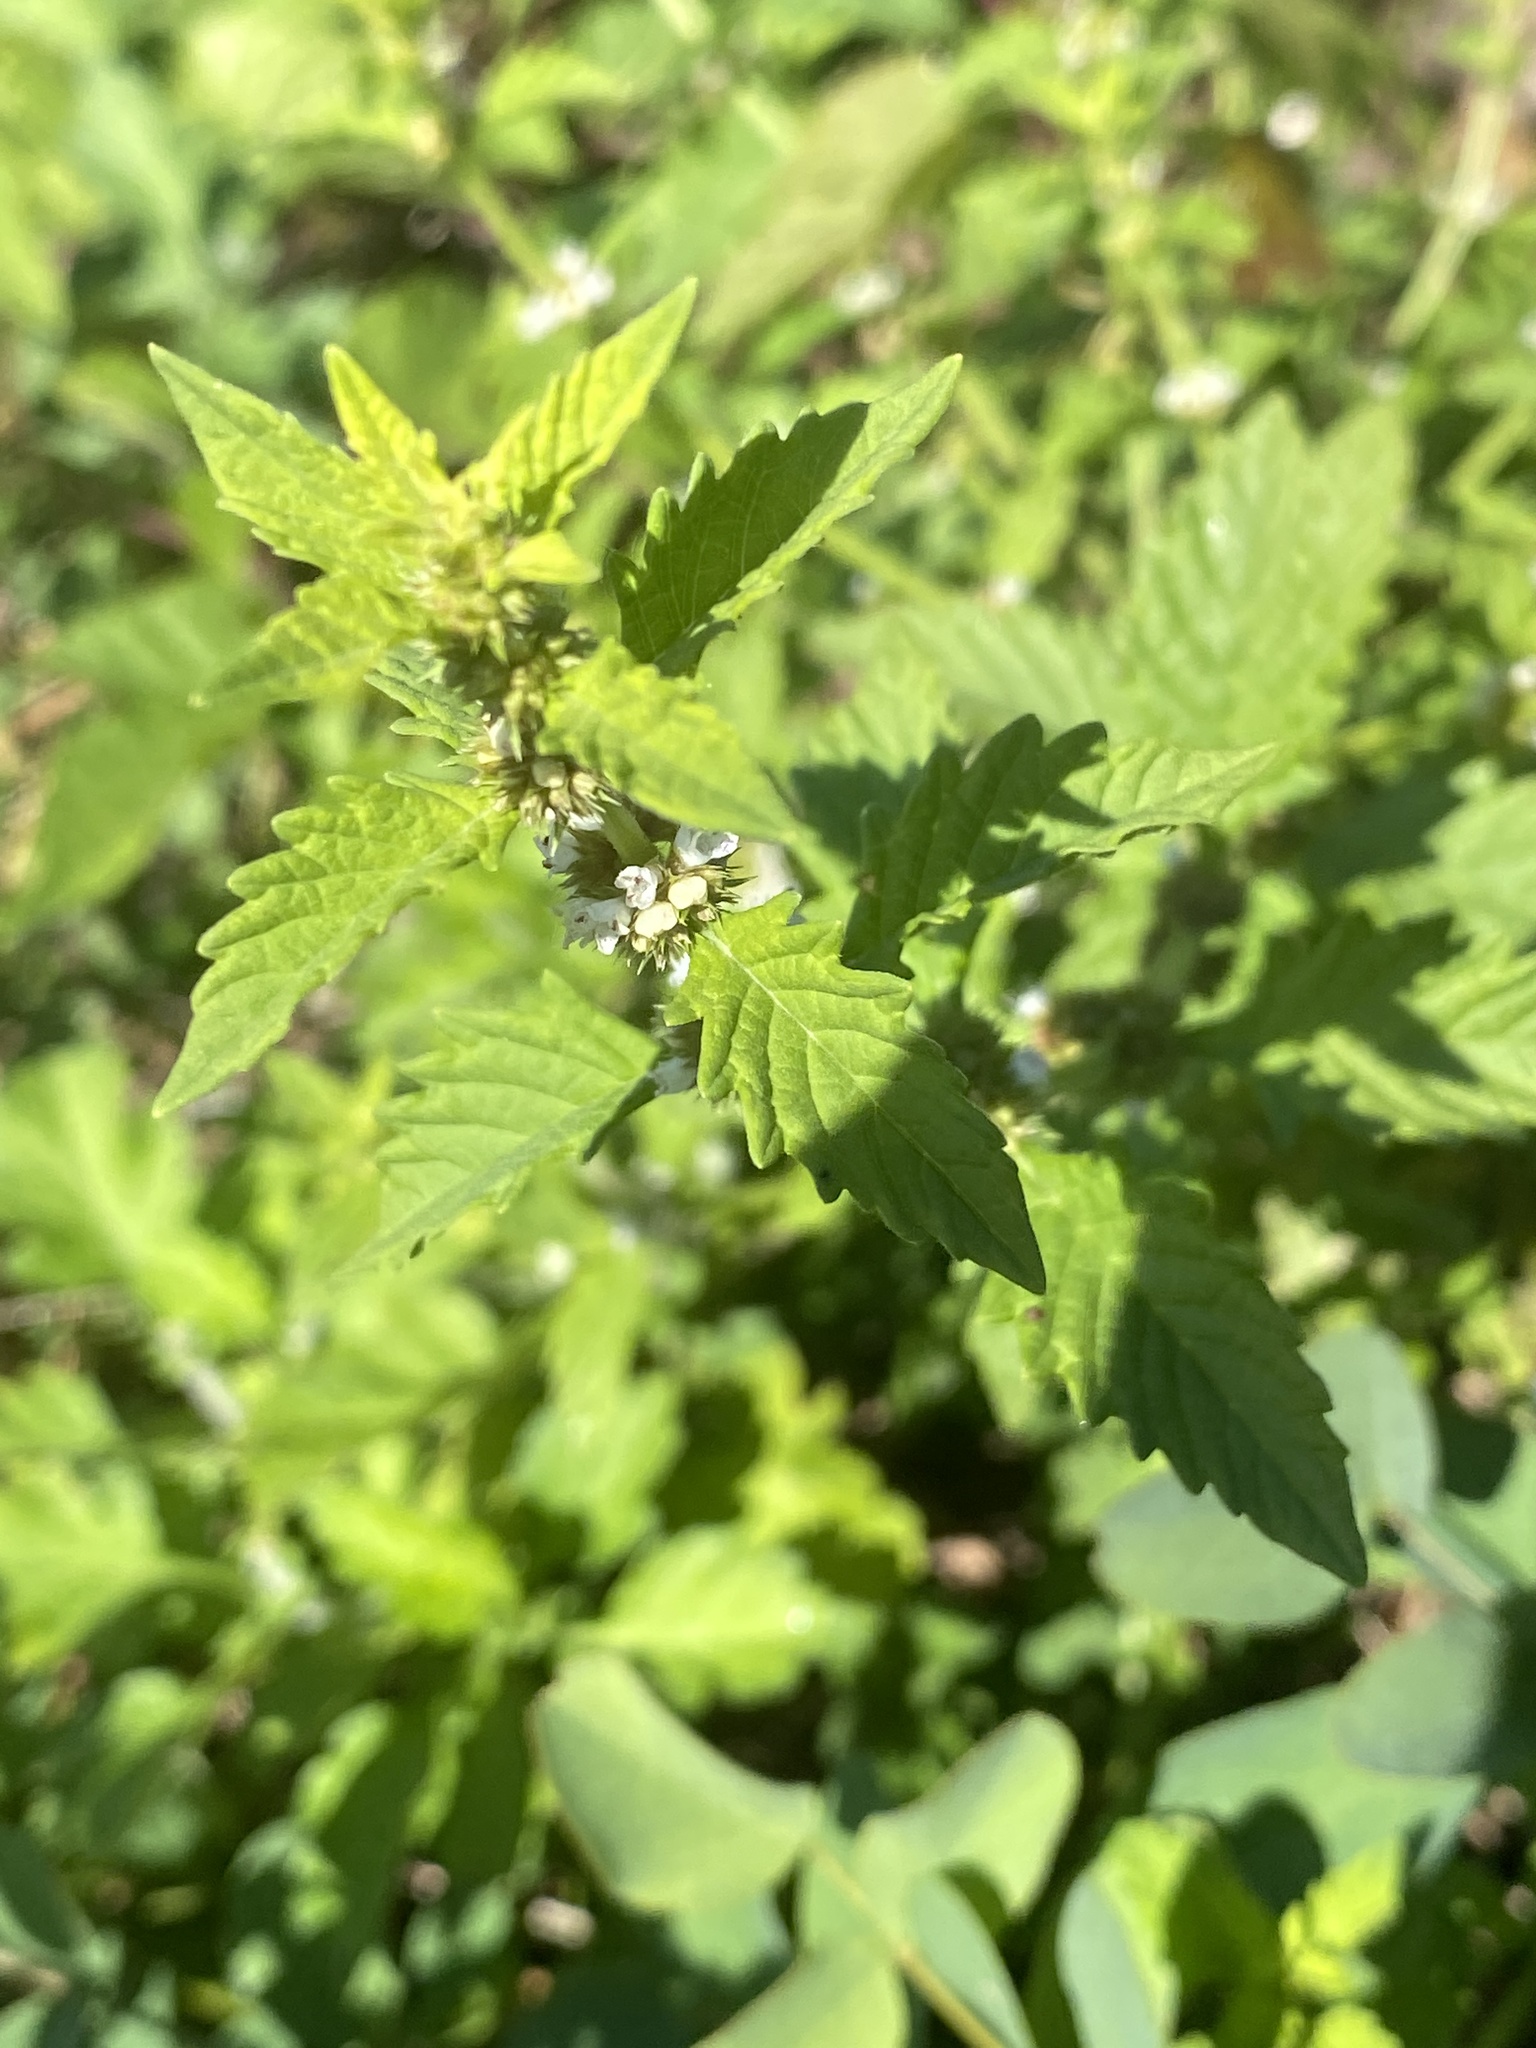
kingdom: Plantae
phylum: Tracheophyta
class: Magnoliopsida
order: Lamiales
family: Lamiaceae
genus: Lycopus
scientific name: Lycopus europaeus
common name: European bugleweed
